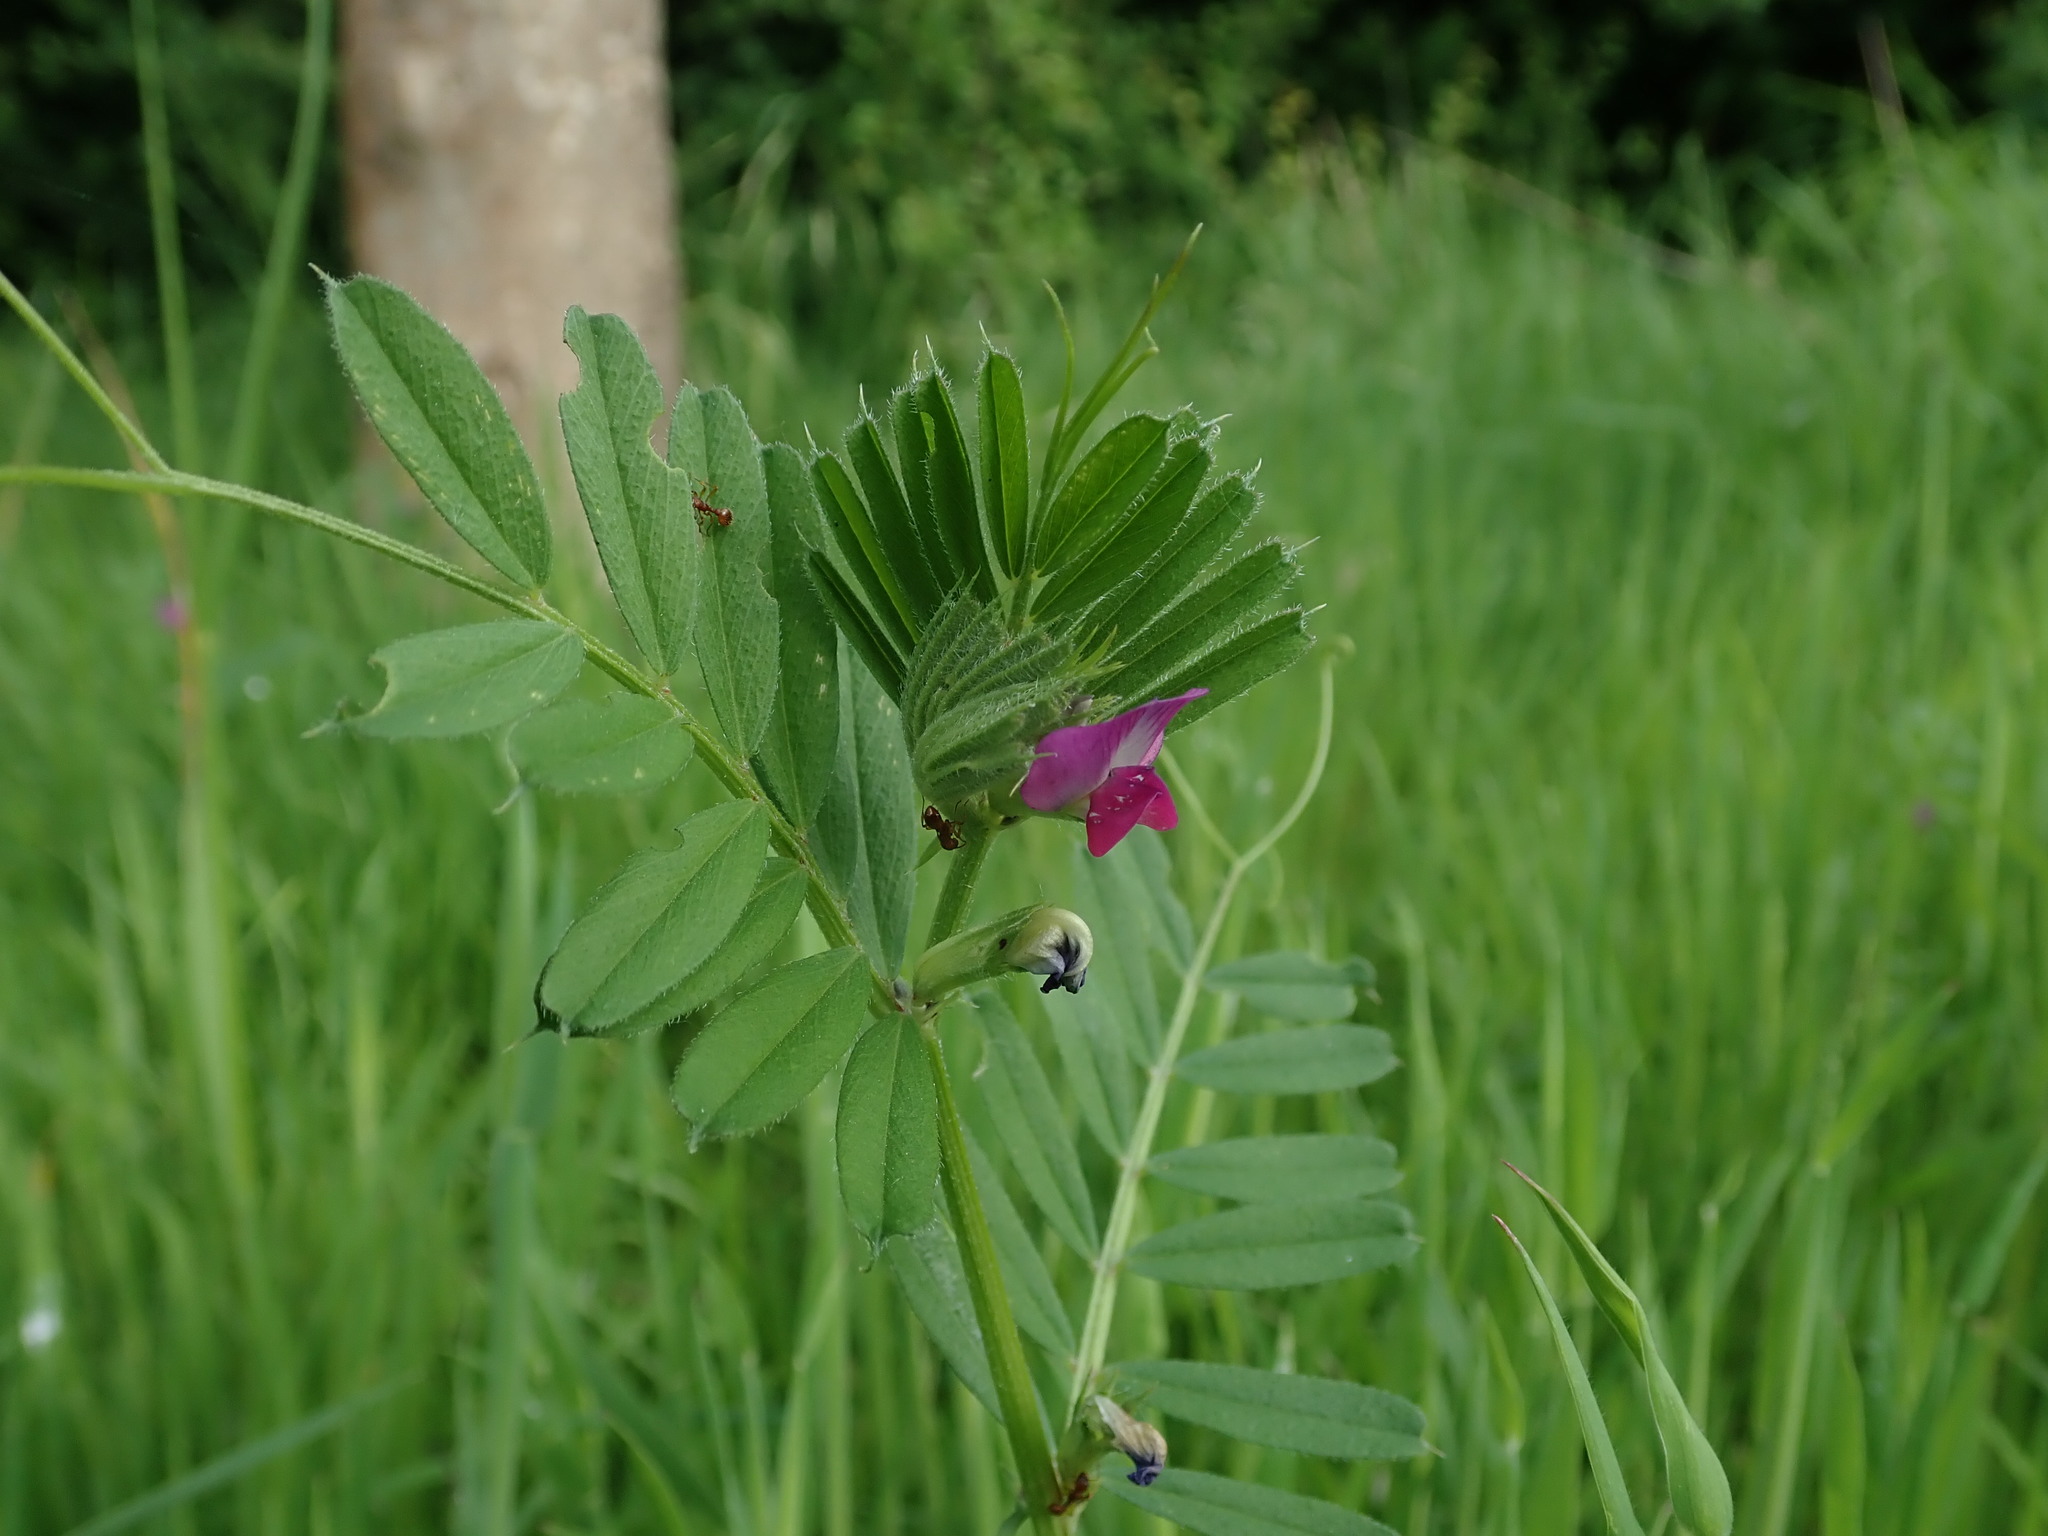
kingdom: Plantae
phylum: Tracheophyta
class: Magnoliopsida
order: Fabales
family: Fabaceae
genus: Vicia
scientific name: Vicia sativa
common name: Garden vetch
